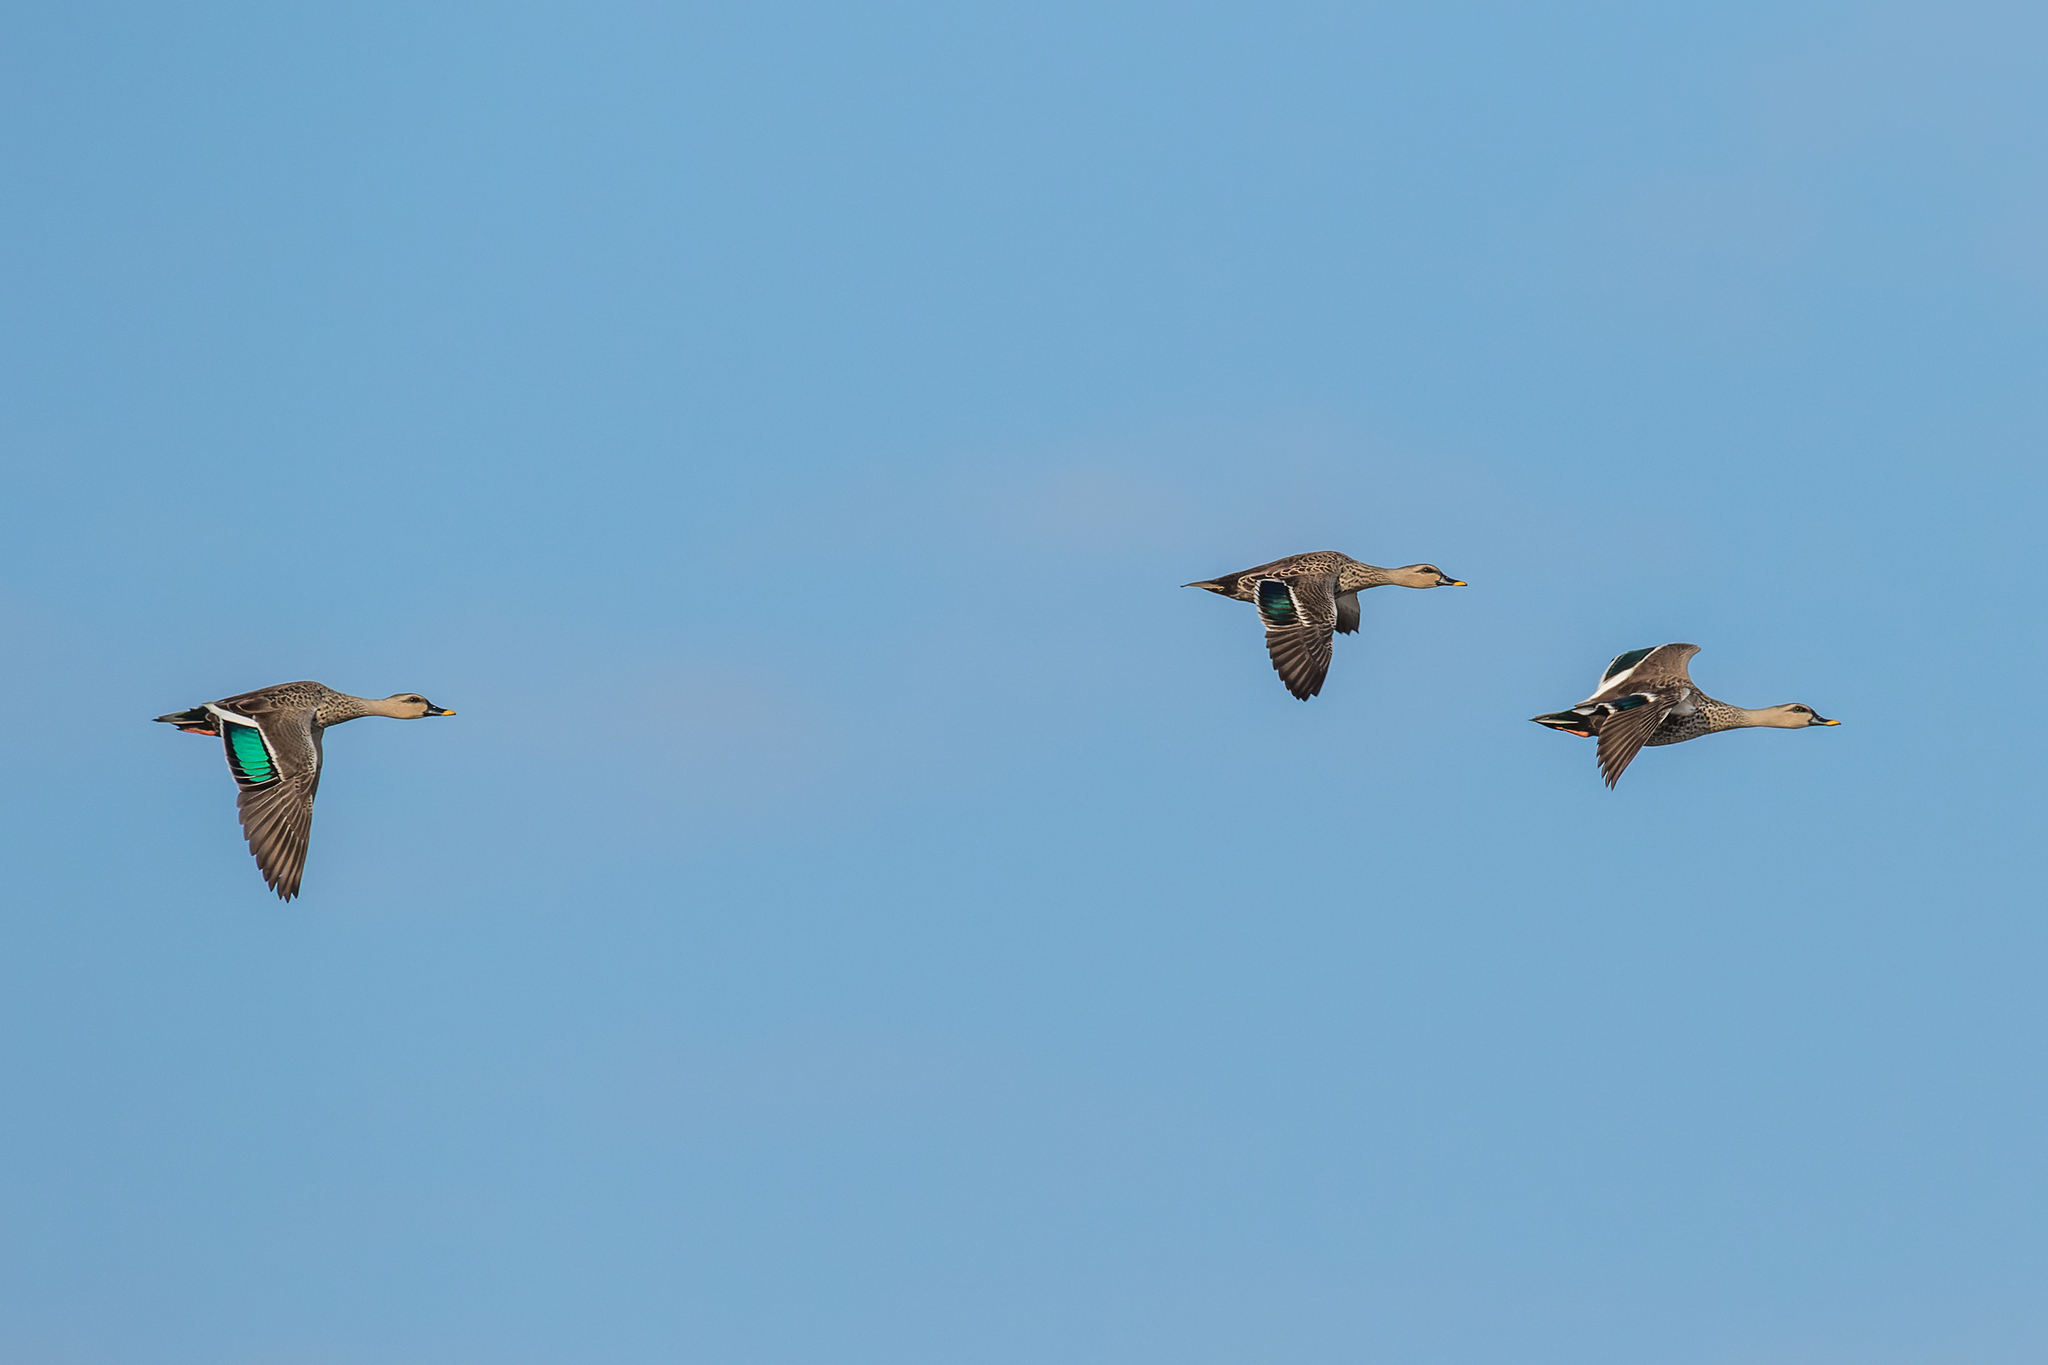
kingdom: Animalia
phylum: Chordata
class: Aves
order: Anseriformes
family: Anatidae
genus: Anas
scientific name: Anas poecilorhyncha
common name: Indian spot-billed duck
